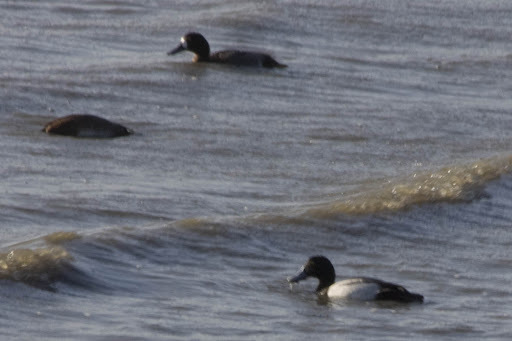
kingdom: Animalia
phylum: Chordata
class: Aves
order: Anseriformes
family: Anatidae
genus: Aythya
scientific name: Aythya marila
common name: Greater scaup
